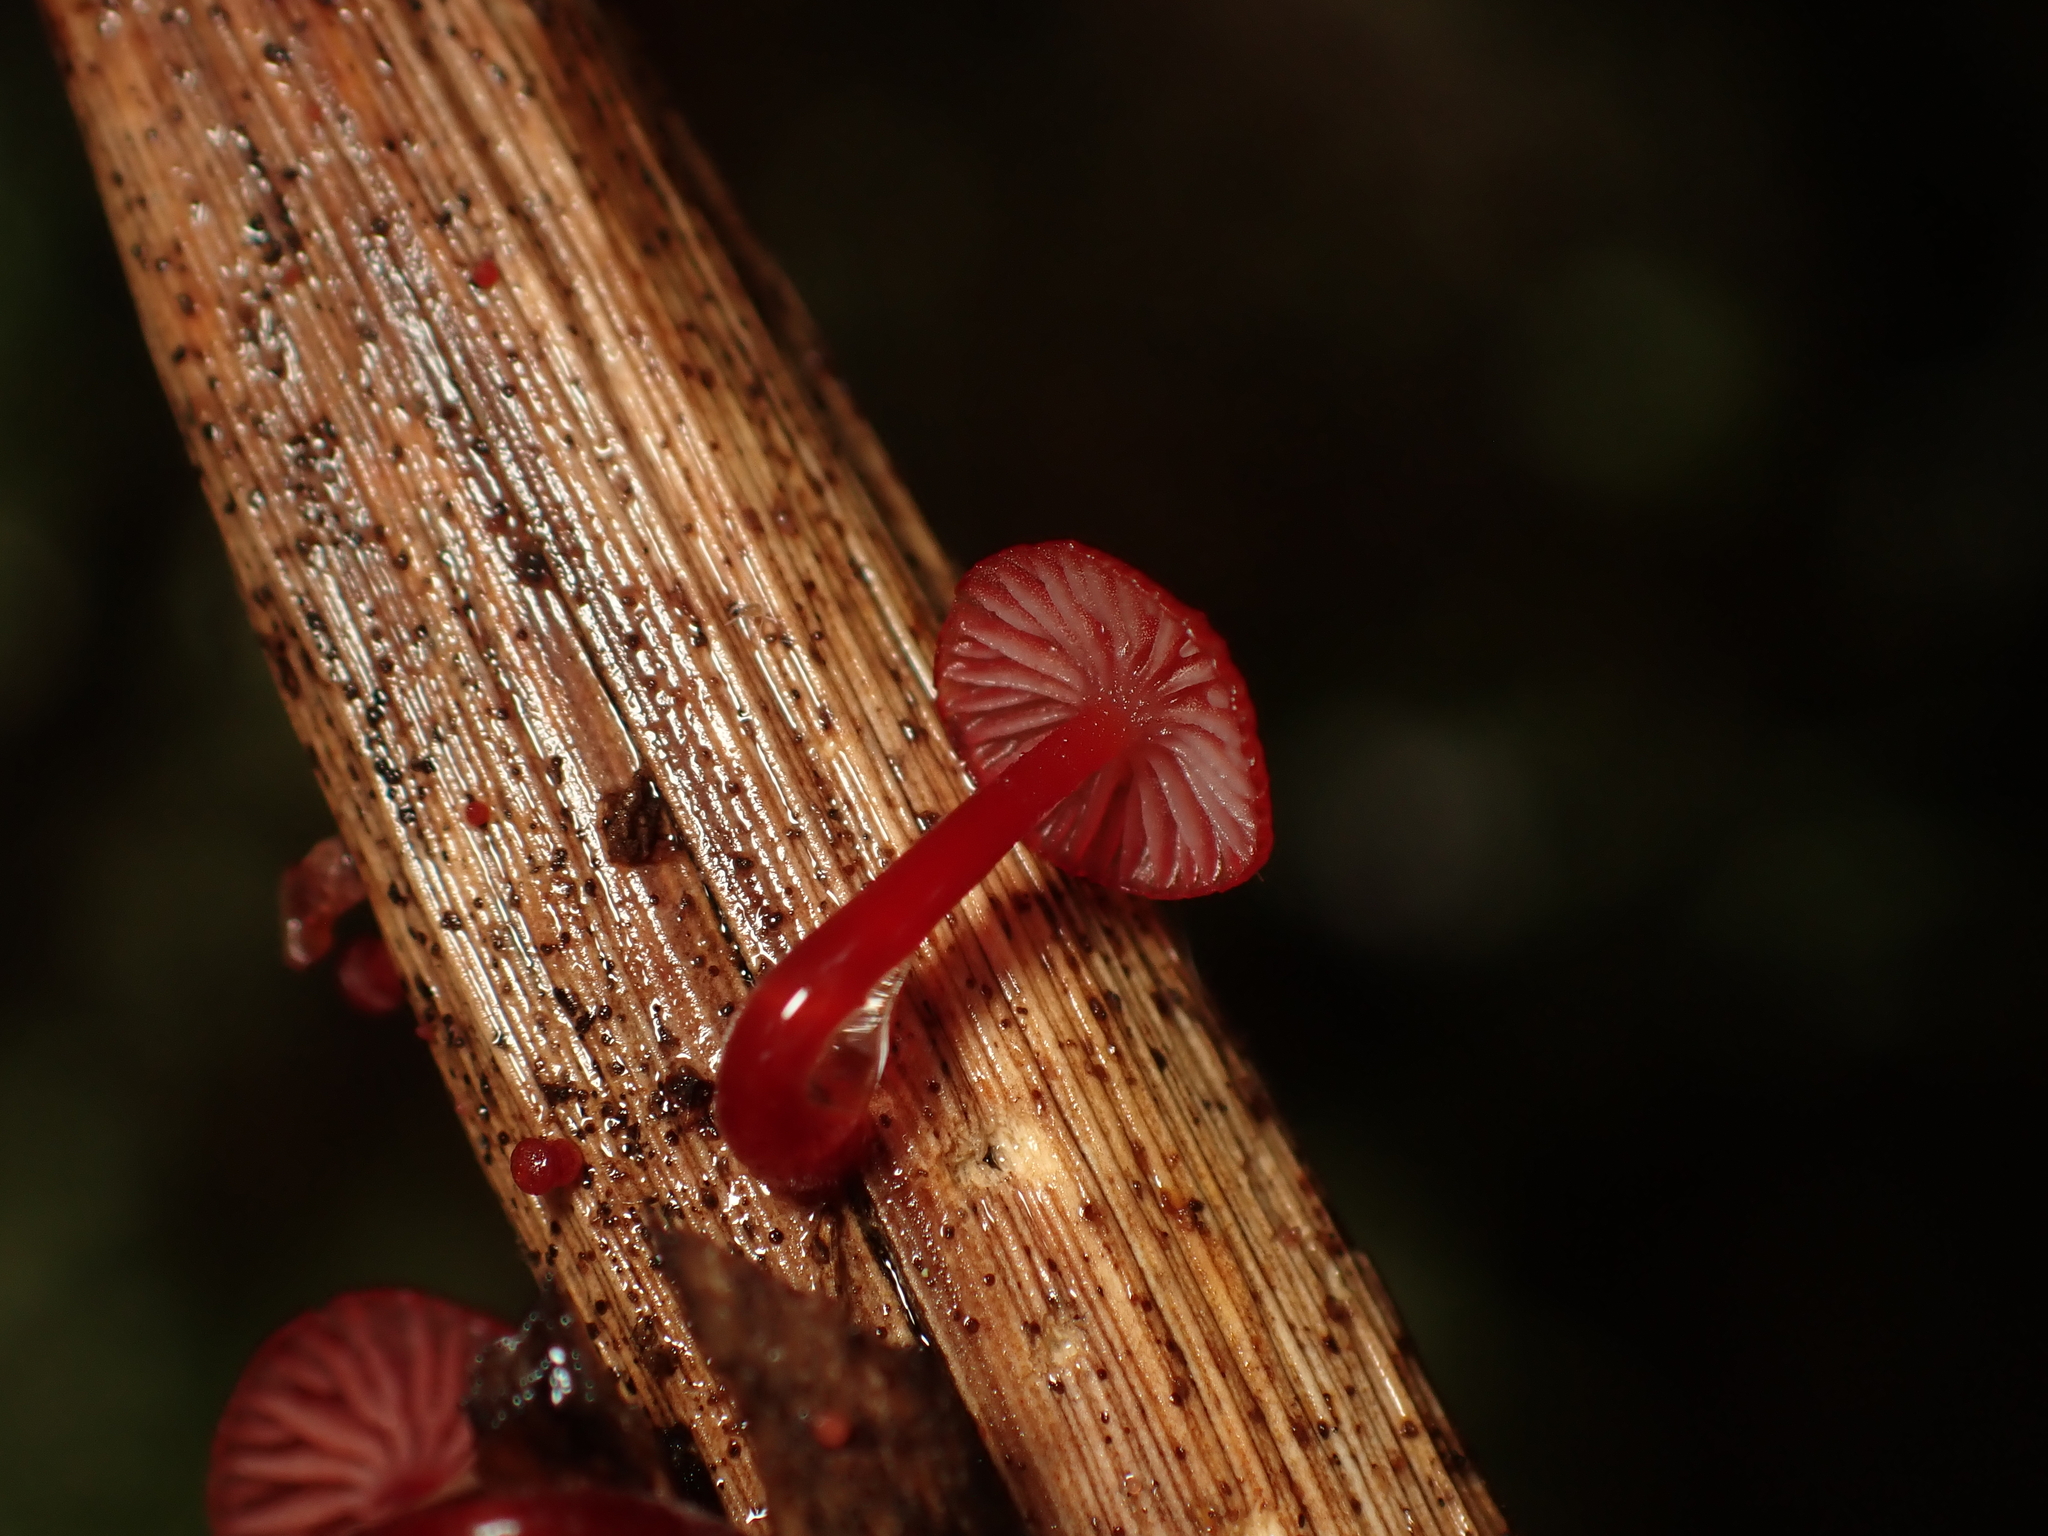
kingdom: Fungi
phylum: Basidiomycota
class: Agaricomycetes
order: Agaricales
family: Mycenaceae
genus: Cruentomycena
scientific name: Cruentomycena viscidocruenta
